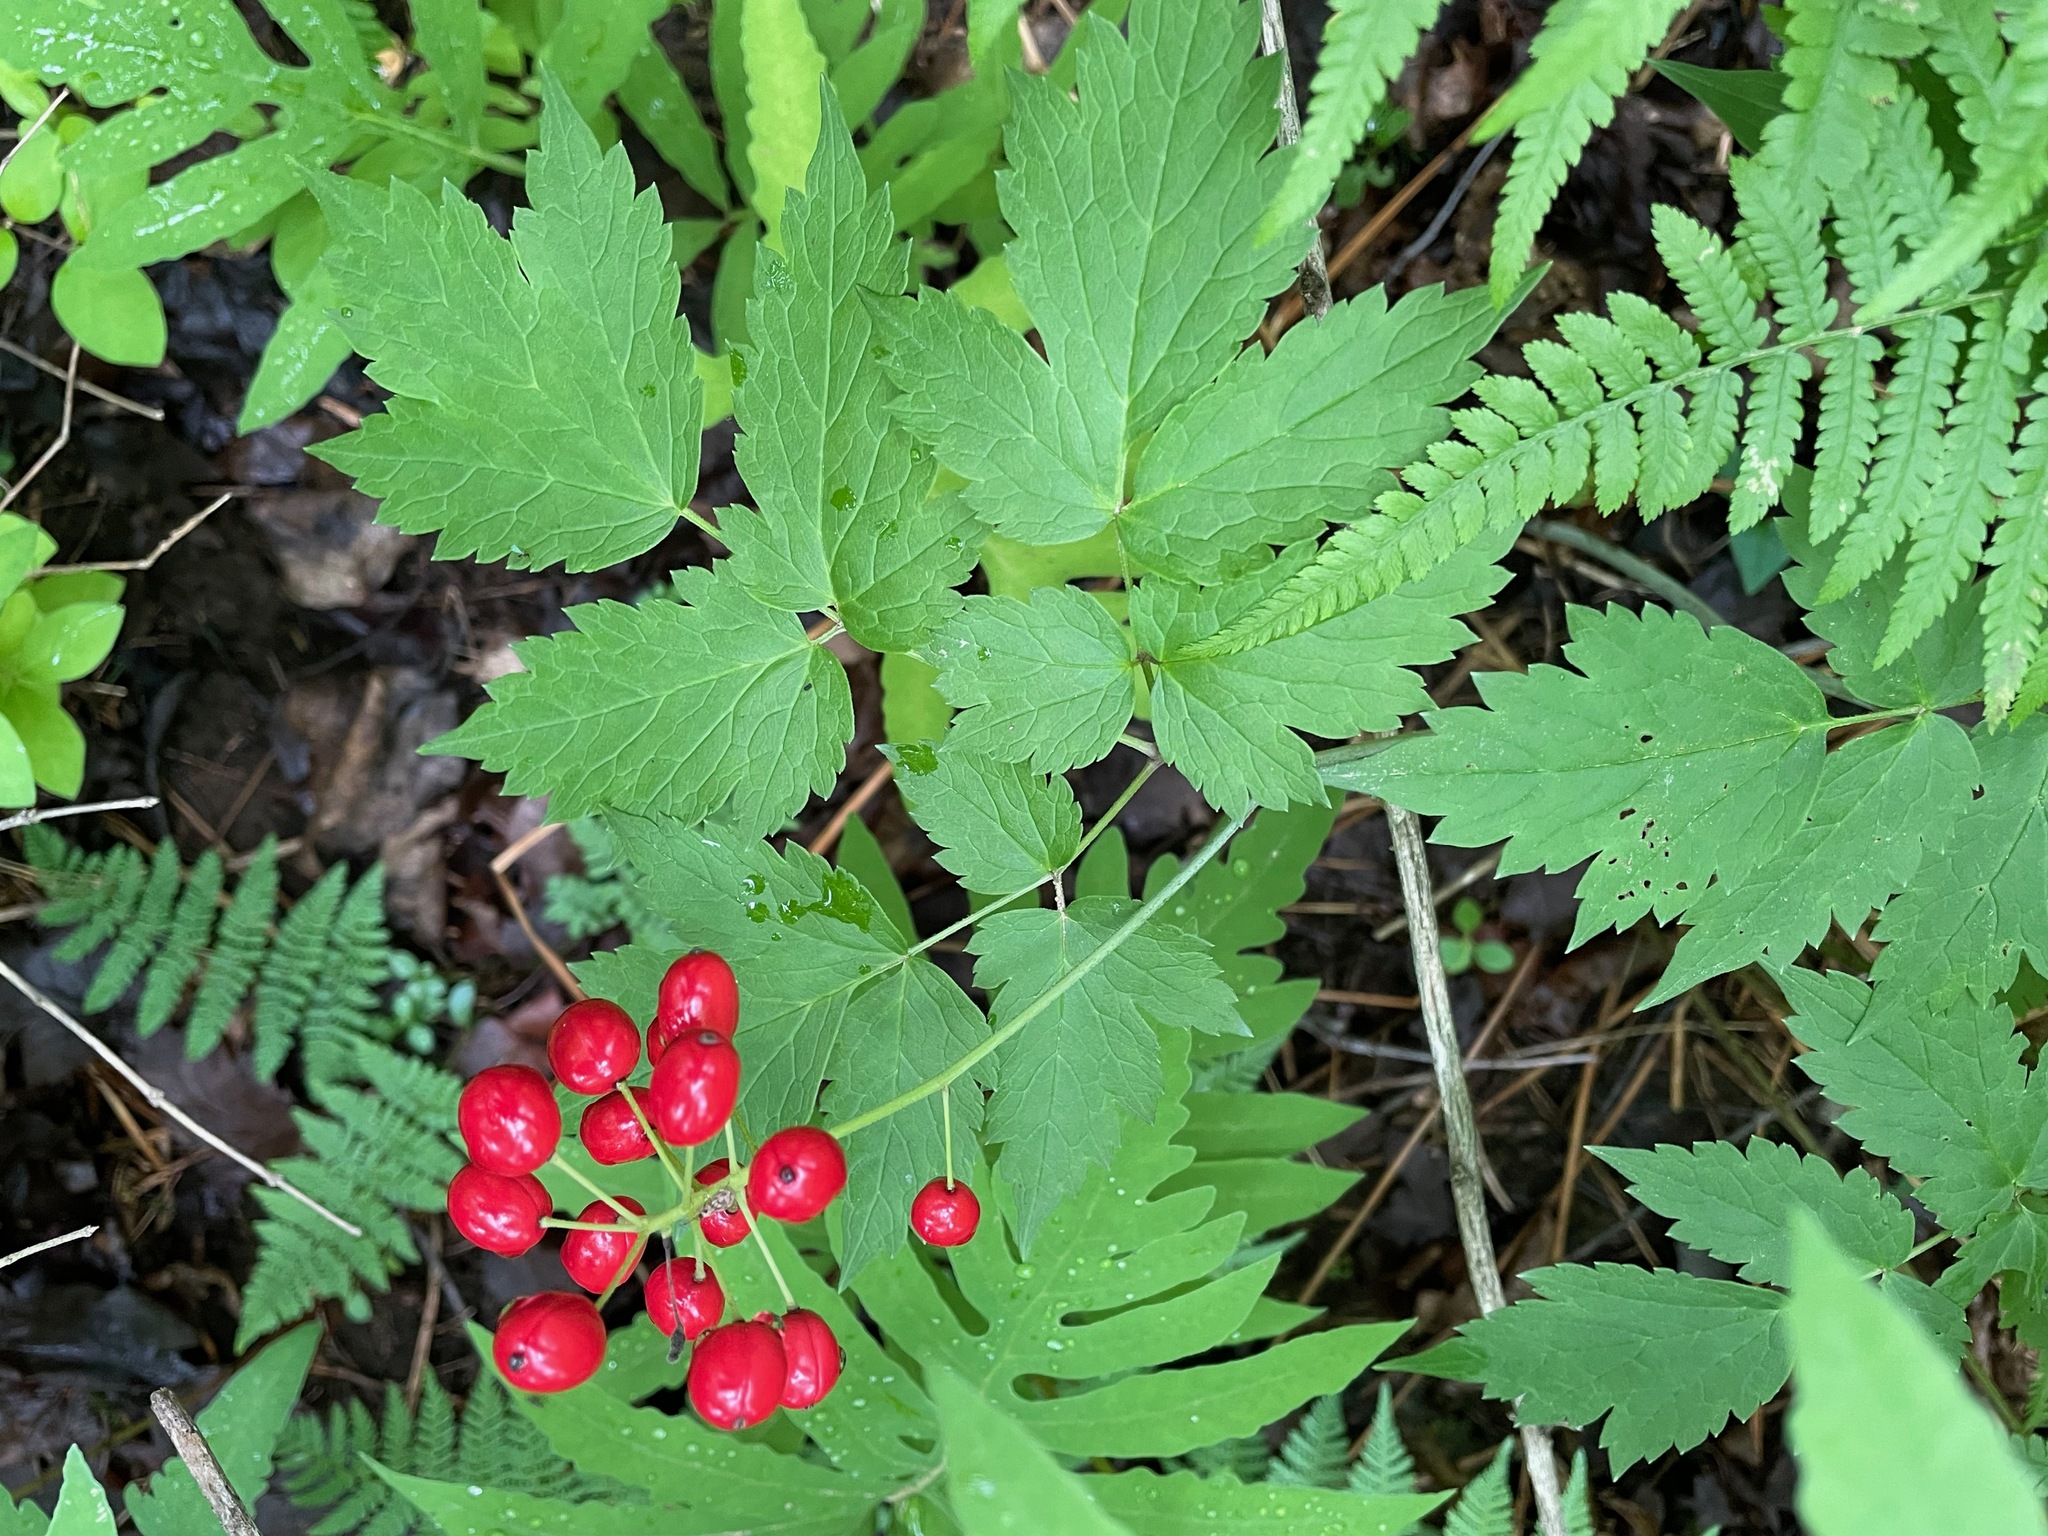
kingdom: Plantae
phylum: Tracheophyta
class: Magnoliopsida
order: Ranunculales
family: Ranunculaceae
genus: Actaea
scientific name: Actaea rubra
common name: Red baneberry
